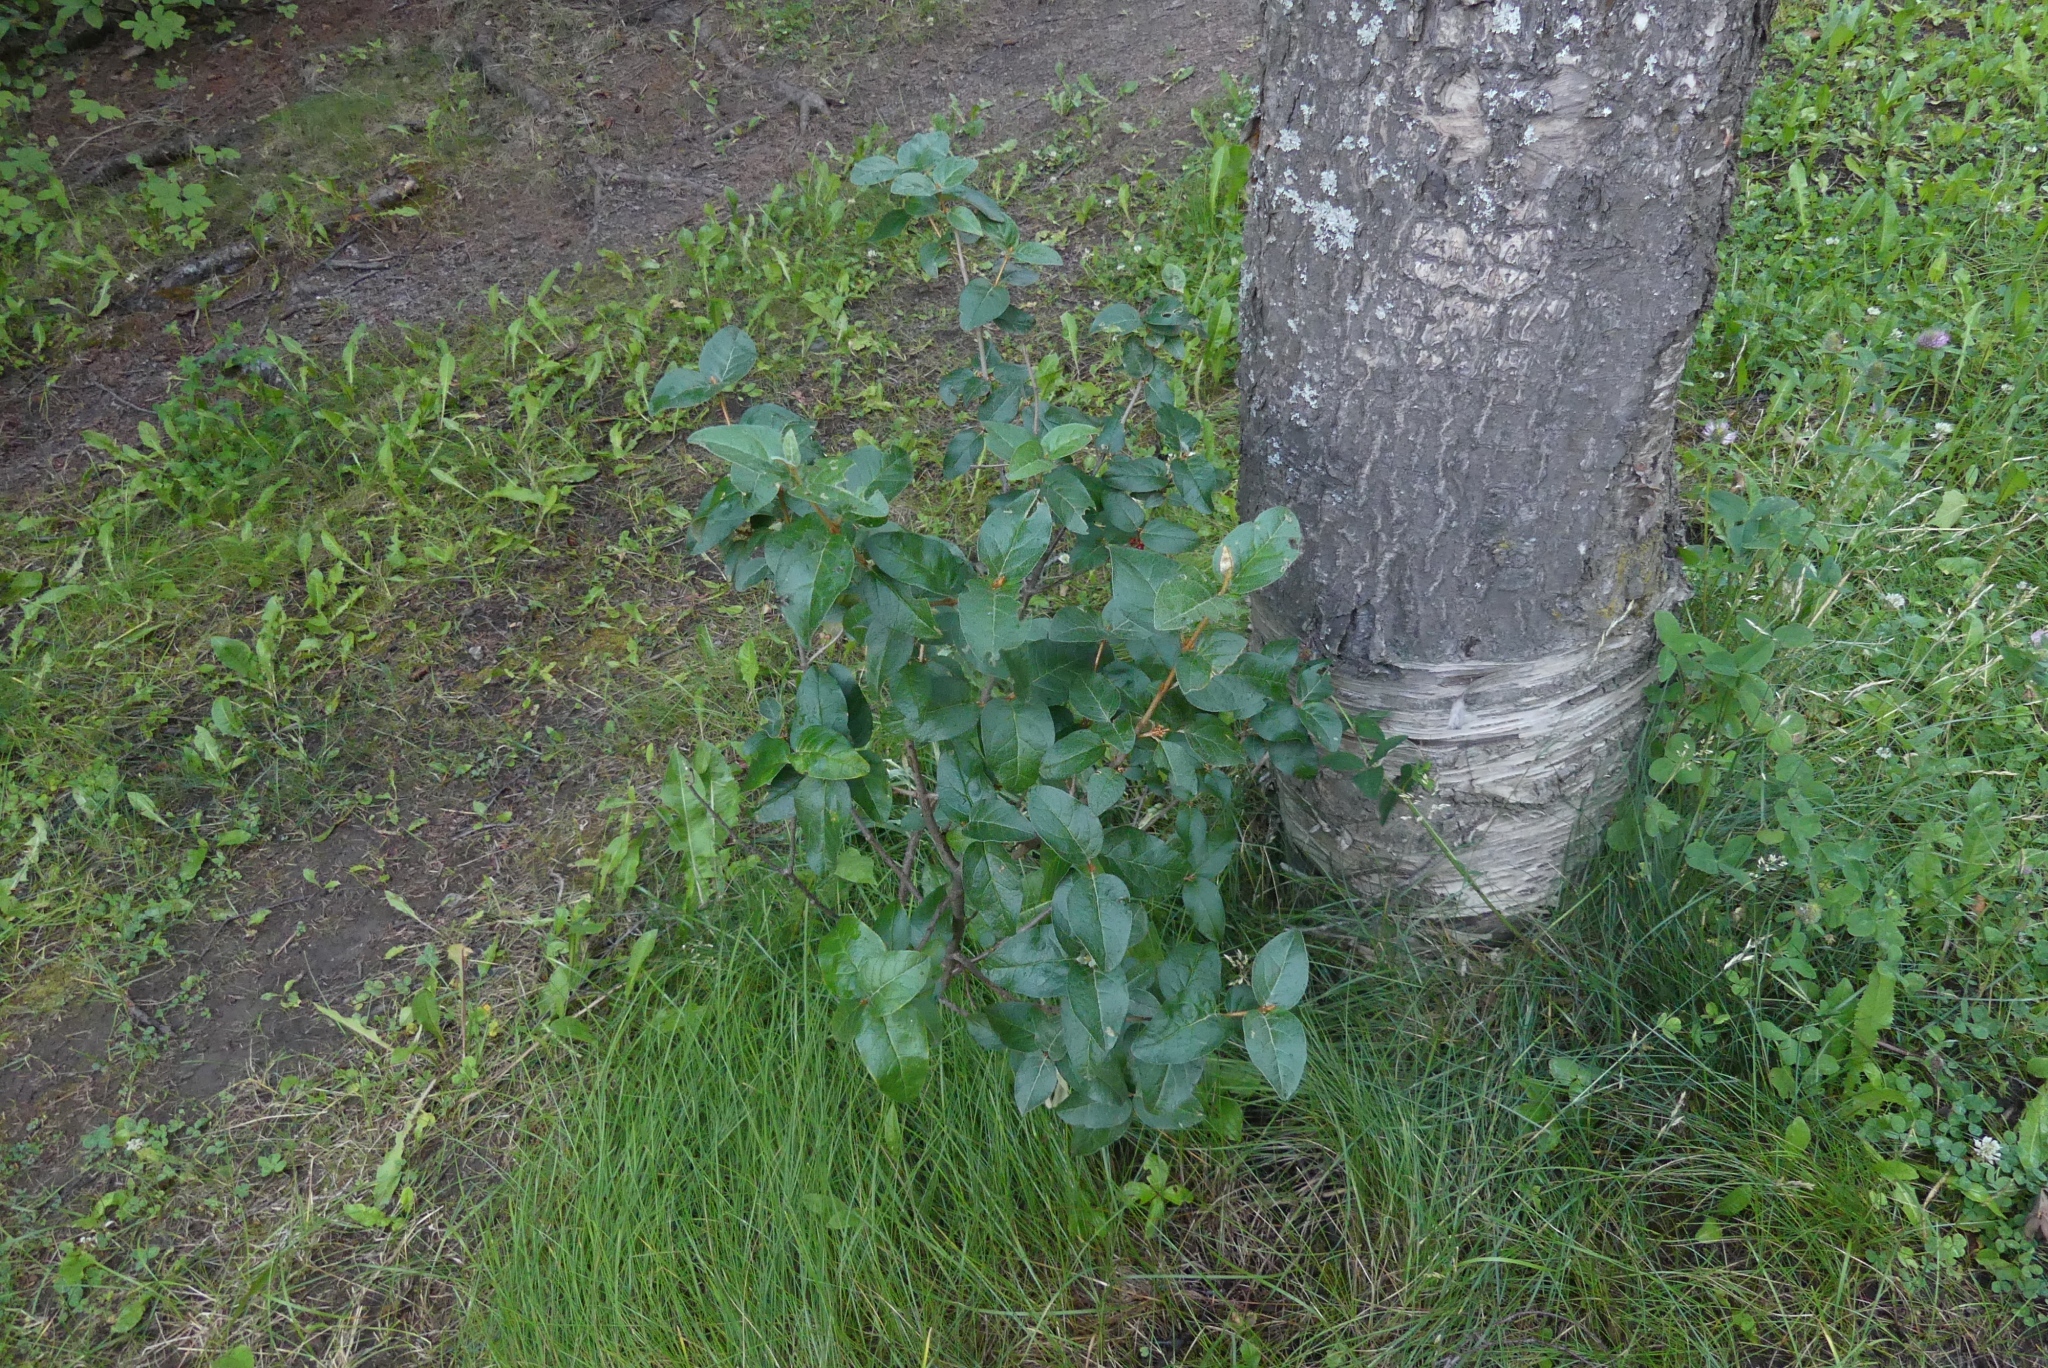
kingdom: Plantae
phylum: Tracheophyta
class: Magnoliopsida
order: Rosales
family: Elaeagnaceae
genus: Shepherdia
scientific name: Shepherdia canadensis
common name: Soapberry
